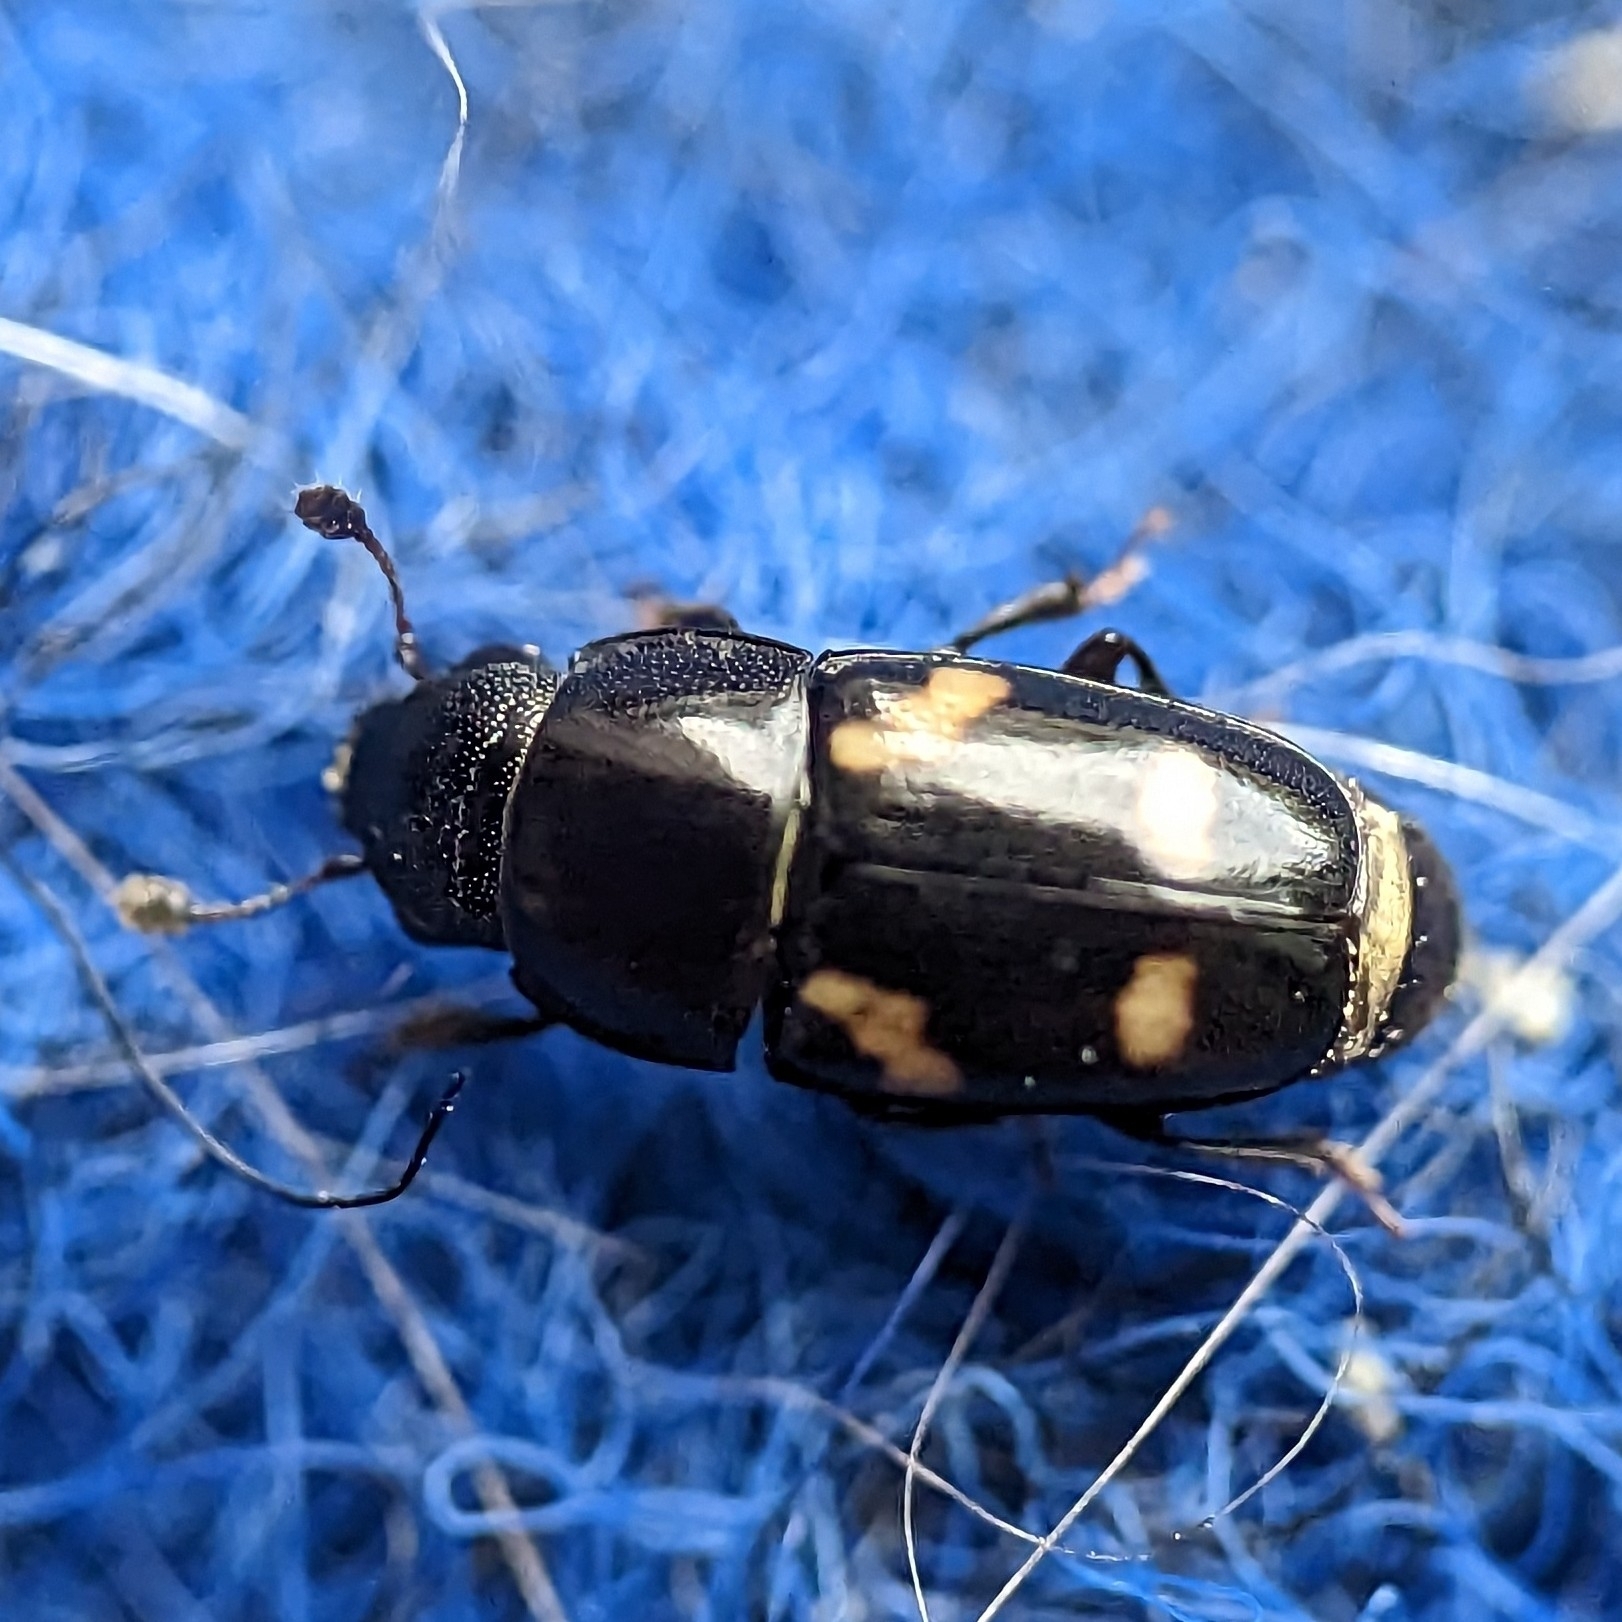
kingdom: Animalia
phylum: Arthropoda
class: Insecta
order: Coleoptera
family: Nitidulidae
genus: Glischrochilus
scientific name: Glischrochilus quadrisignatus
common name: Picnic beetle
